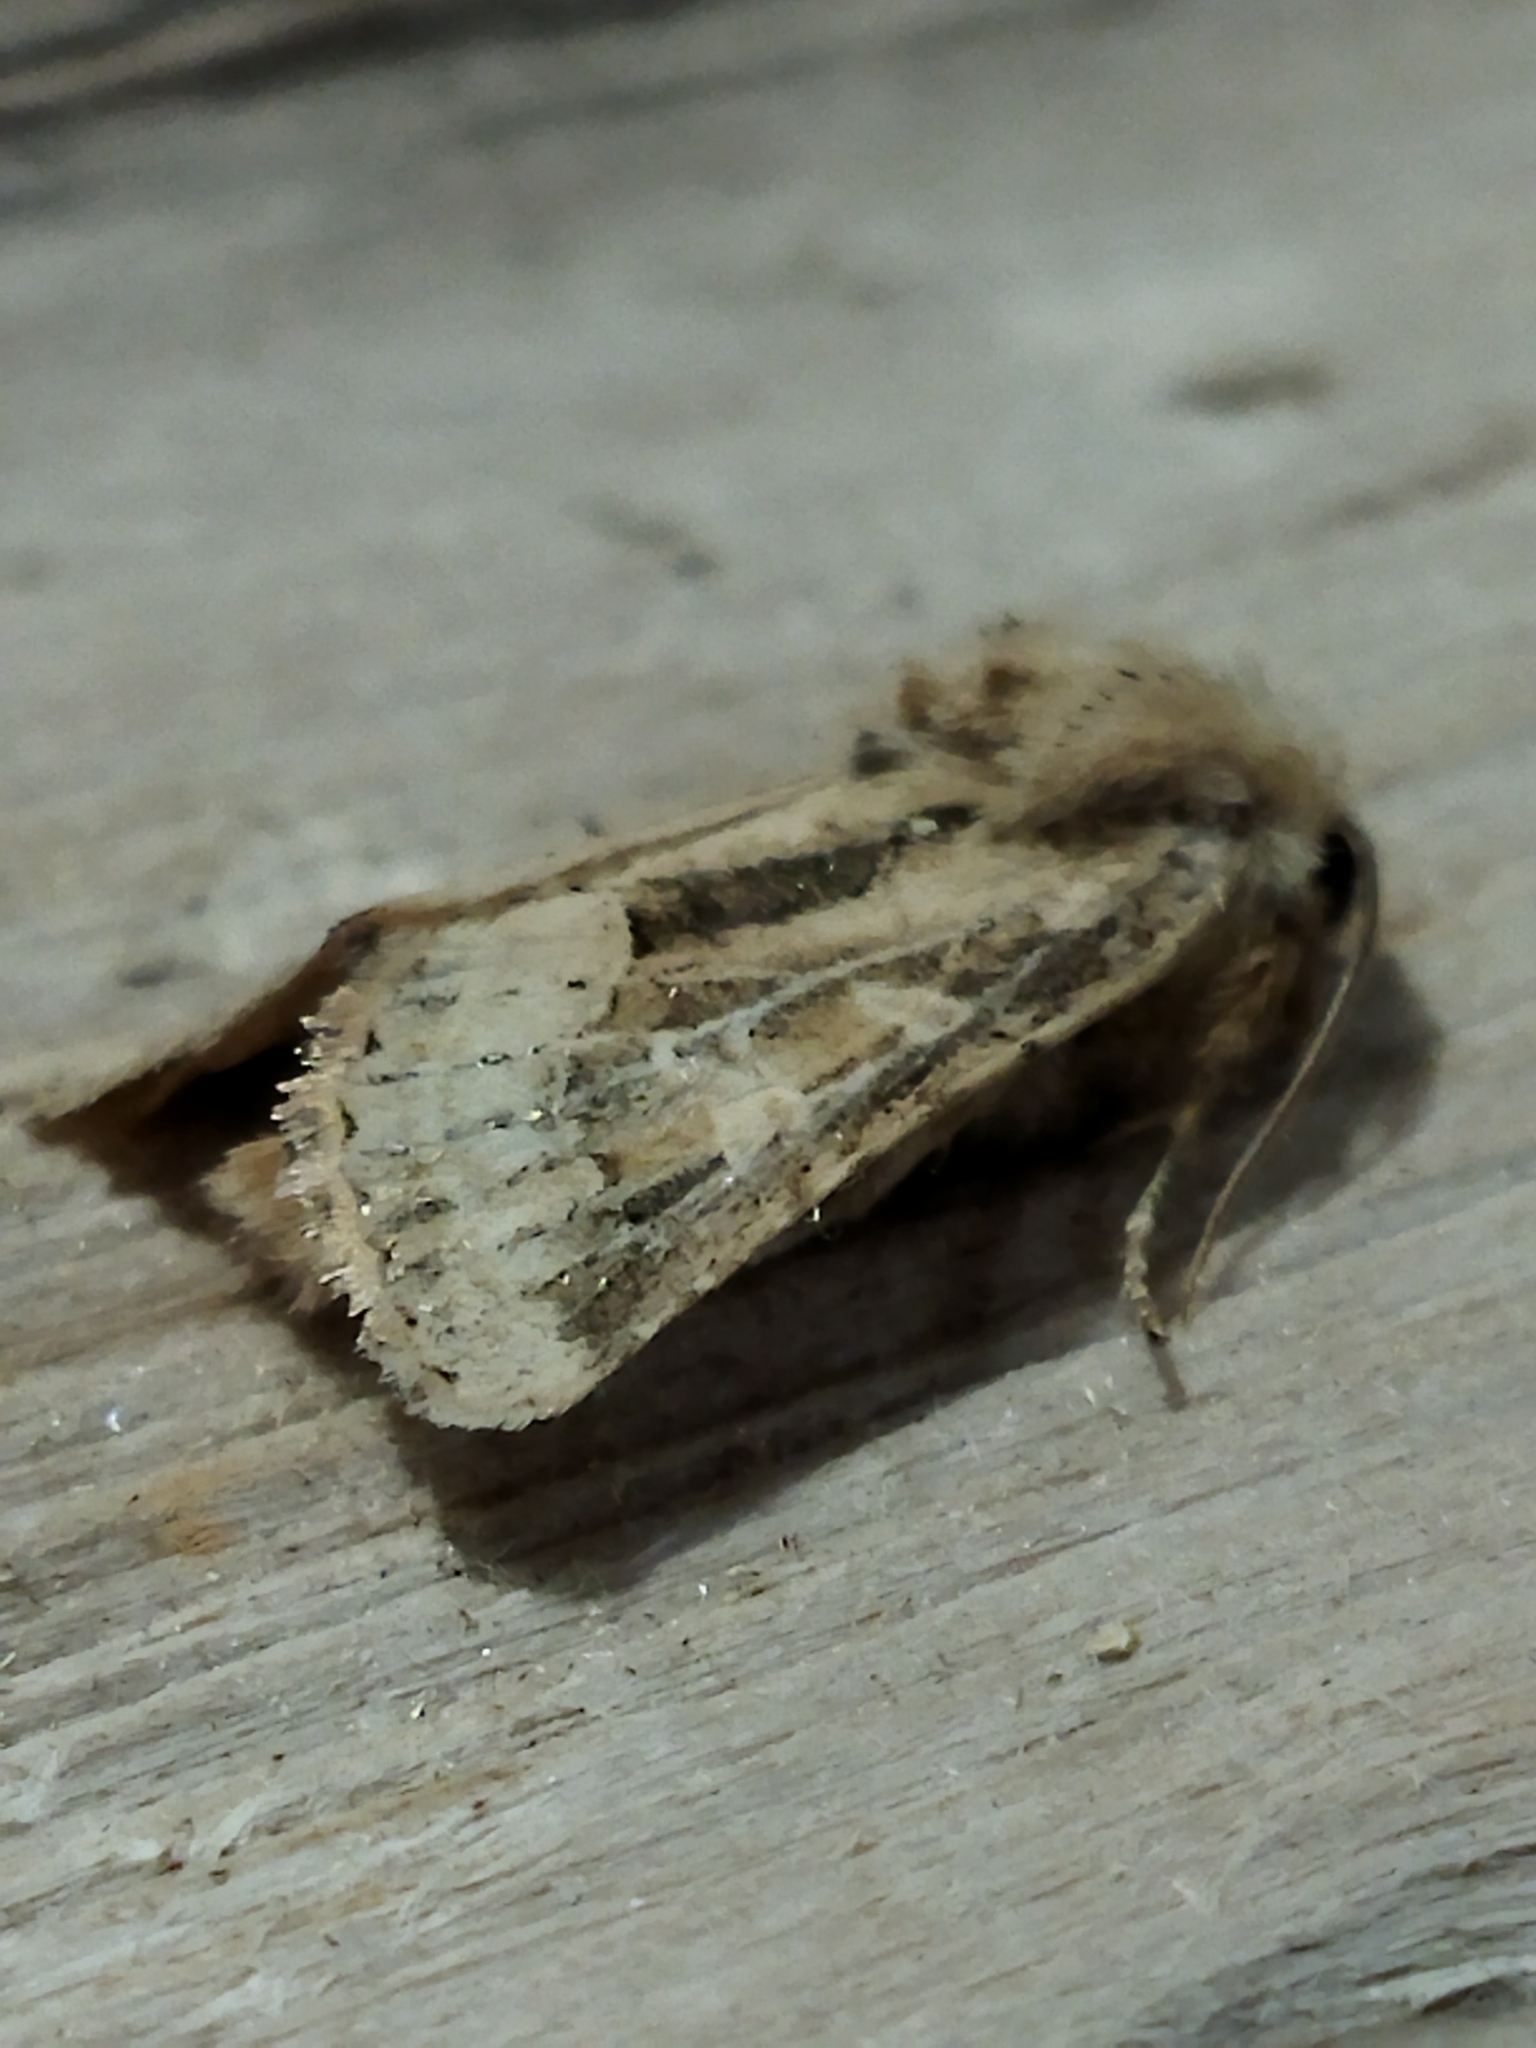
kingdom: Animalia
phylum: Arthropoda
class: Insecta
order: Lepidoptera
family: Noctuidae
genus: Luperina
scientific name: Luperina dumerilii
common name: Dumeril's rustic
